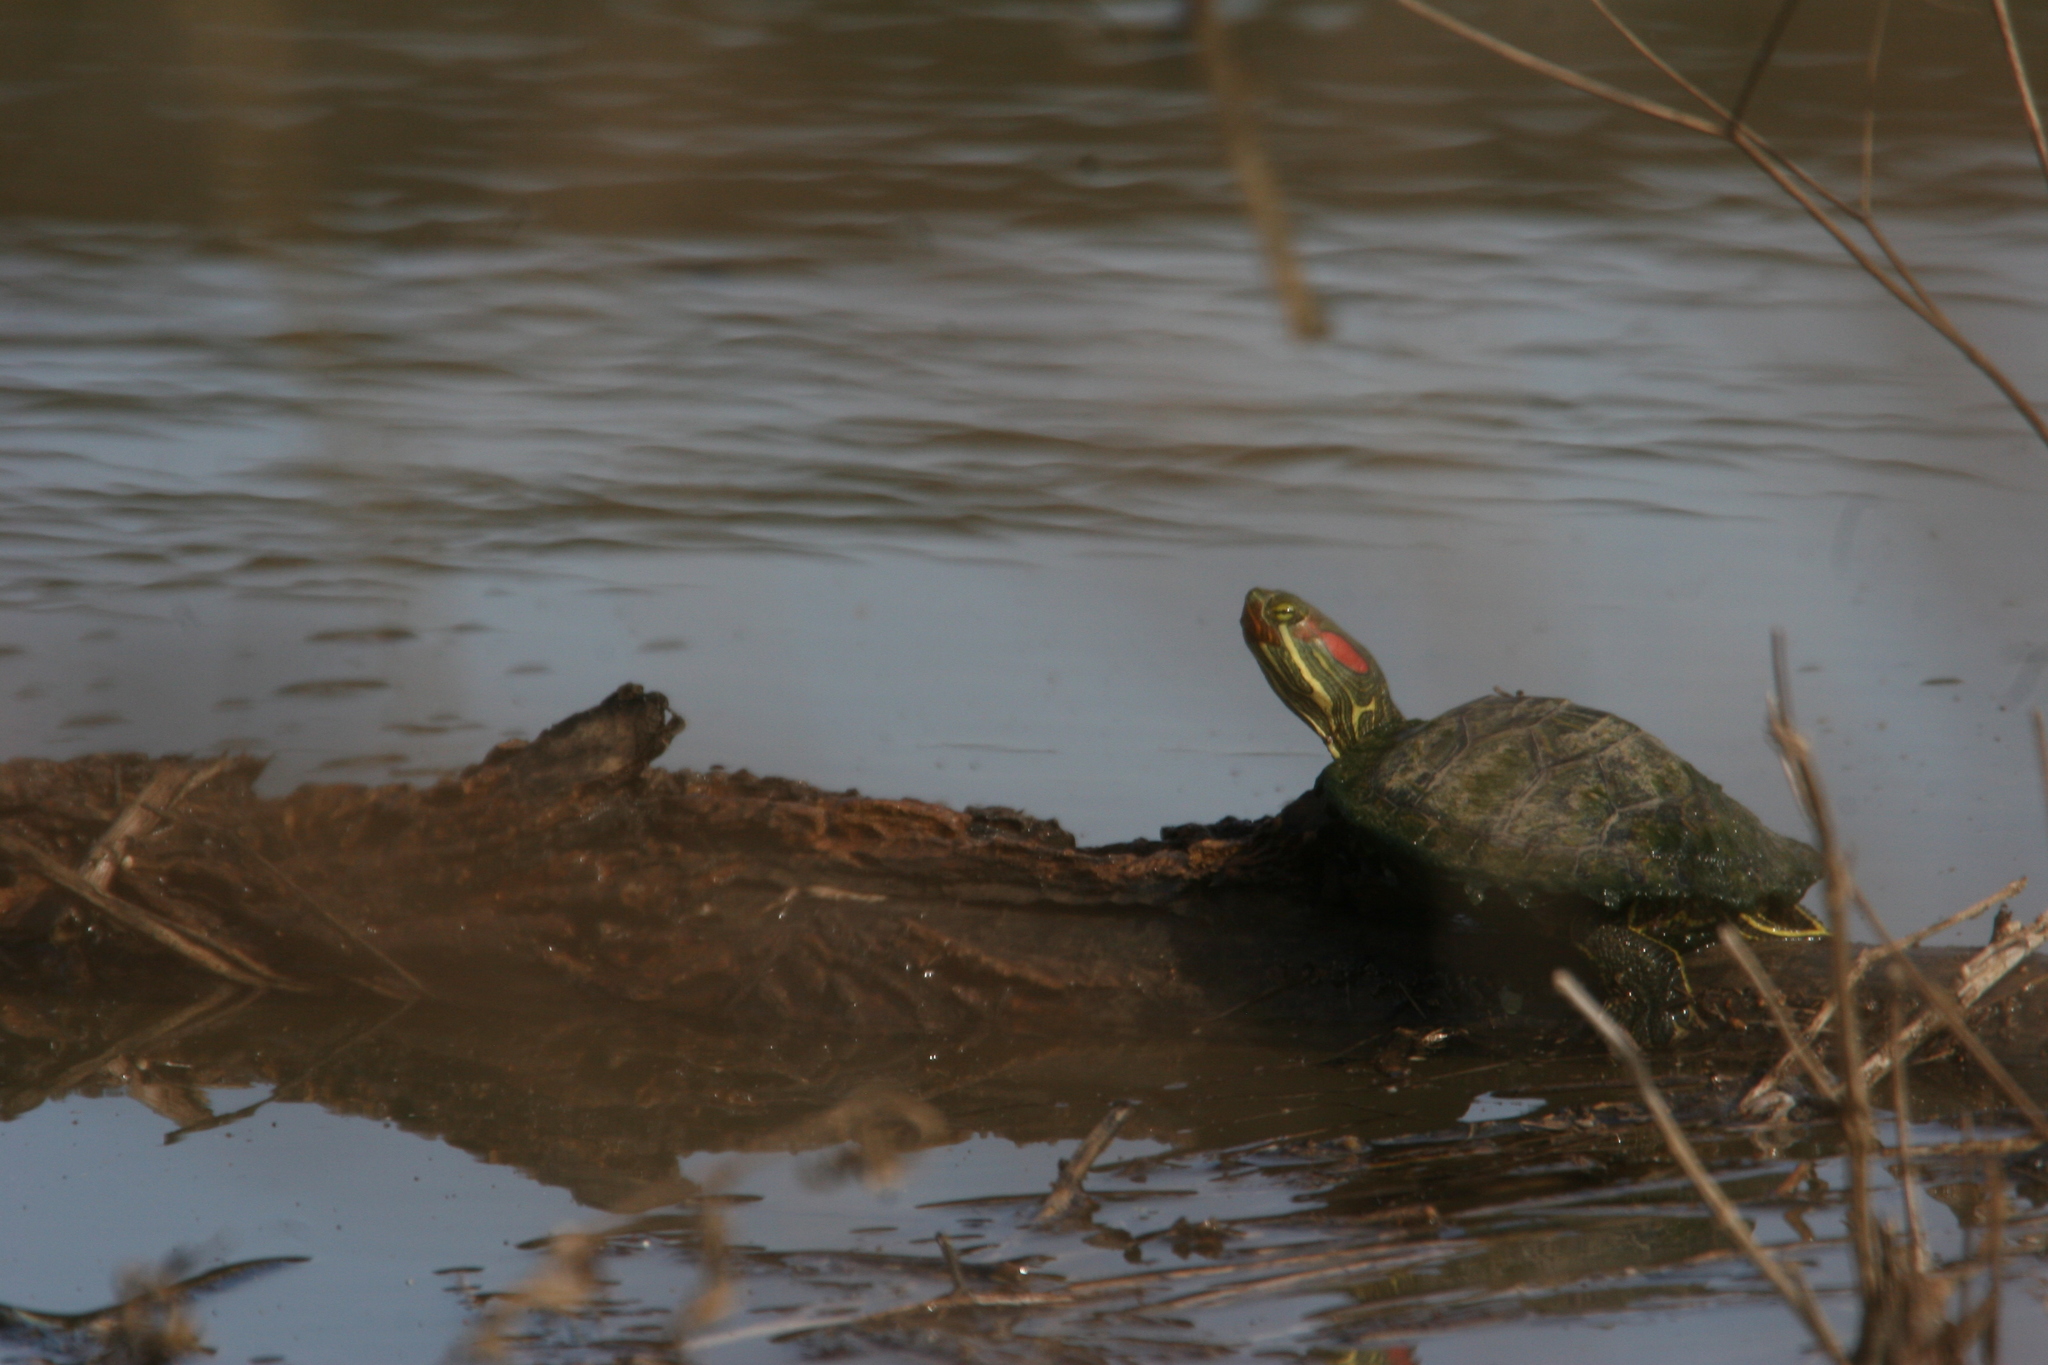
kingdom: Animalia
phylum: Chordata
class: Testudines
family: Emydidae
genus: Trachemys
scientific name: Trachemys scripta
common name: Slider
